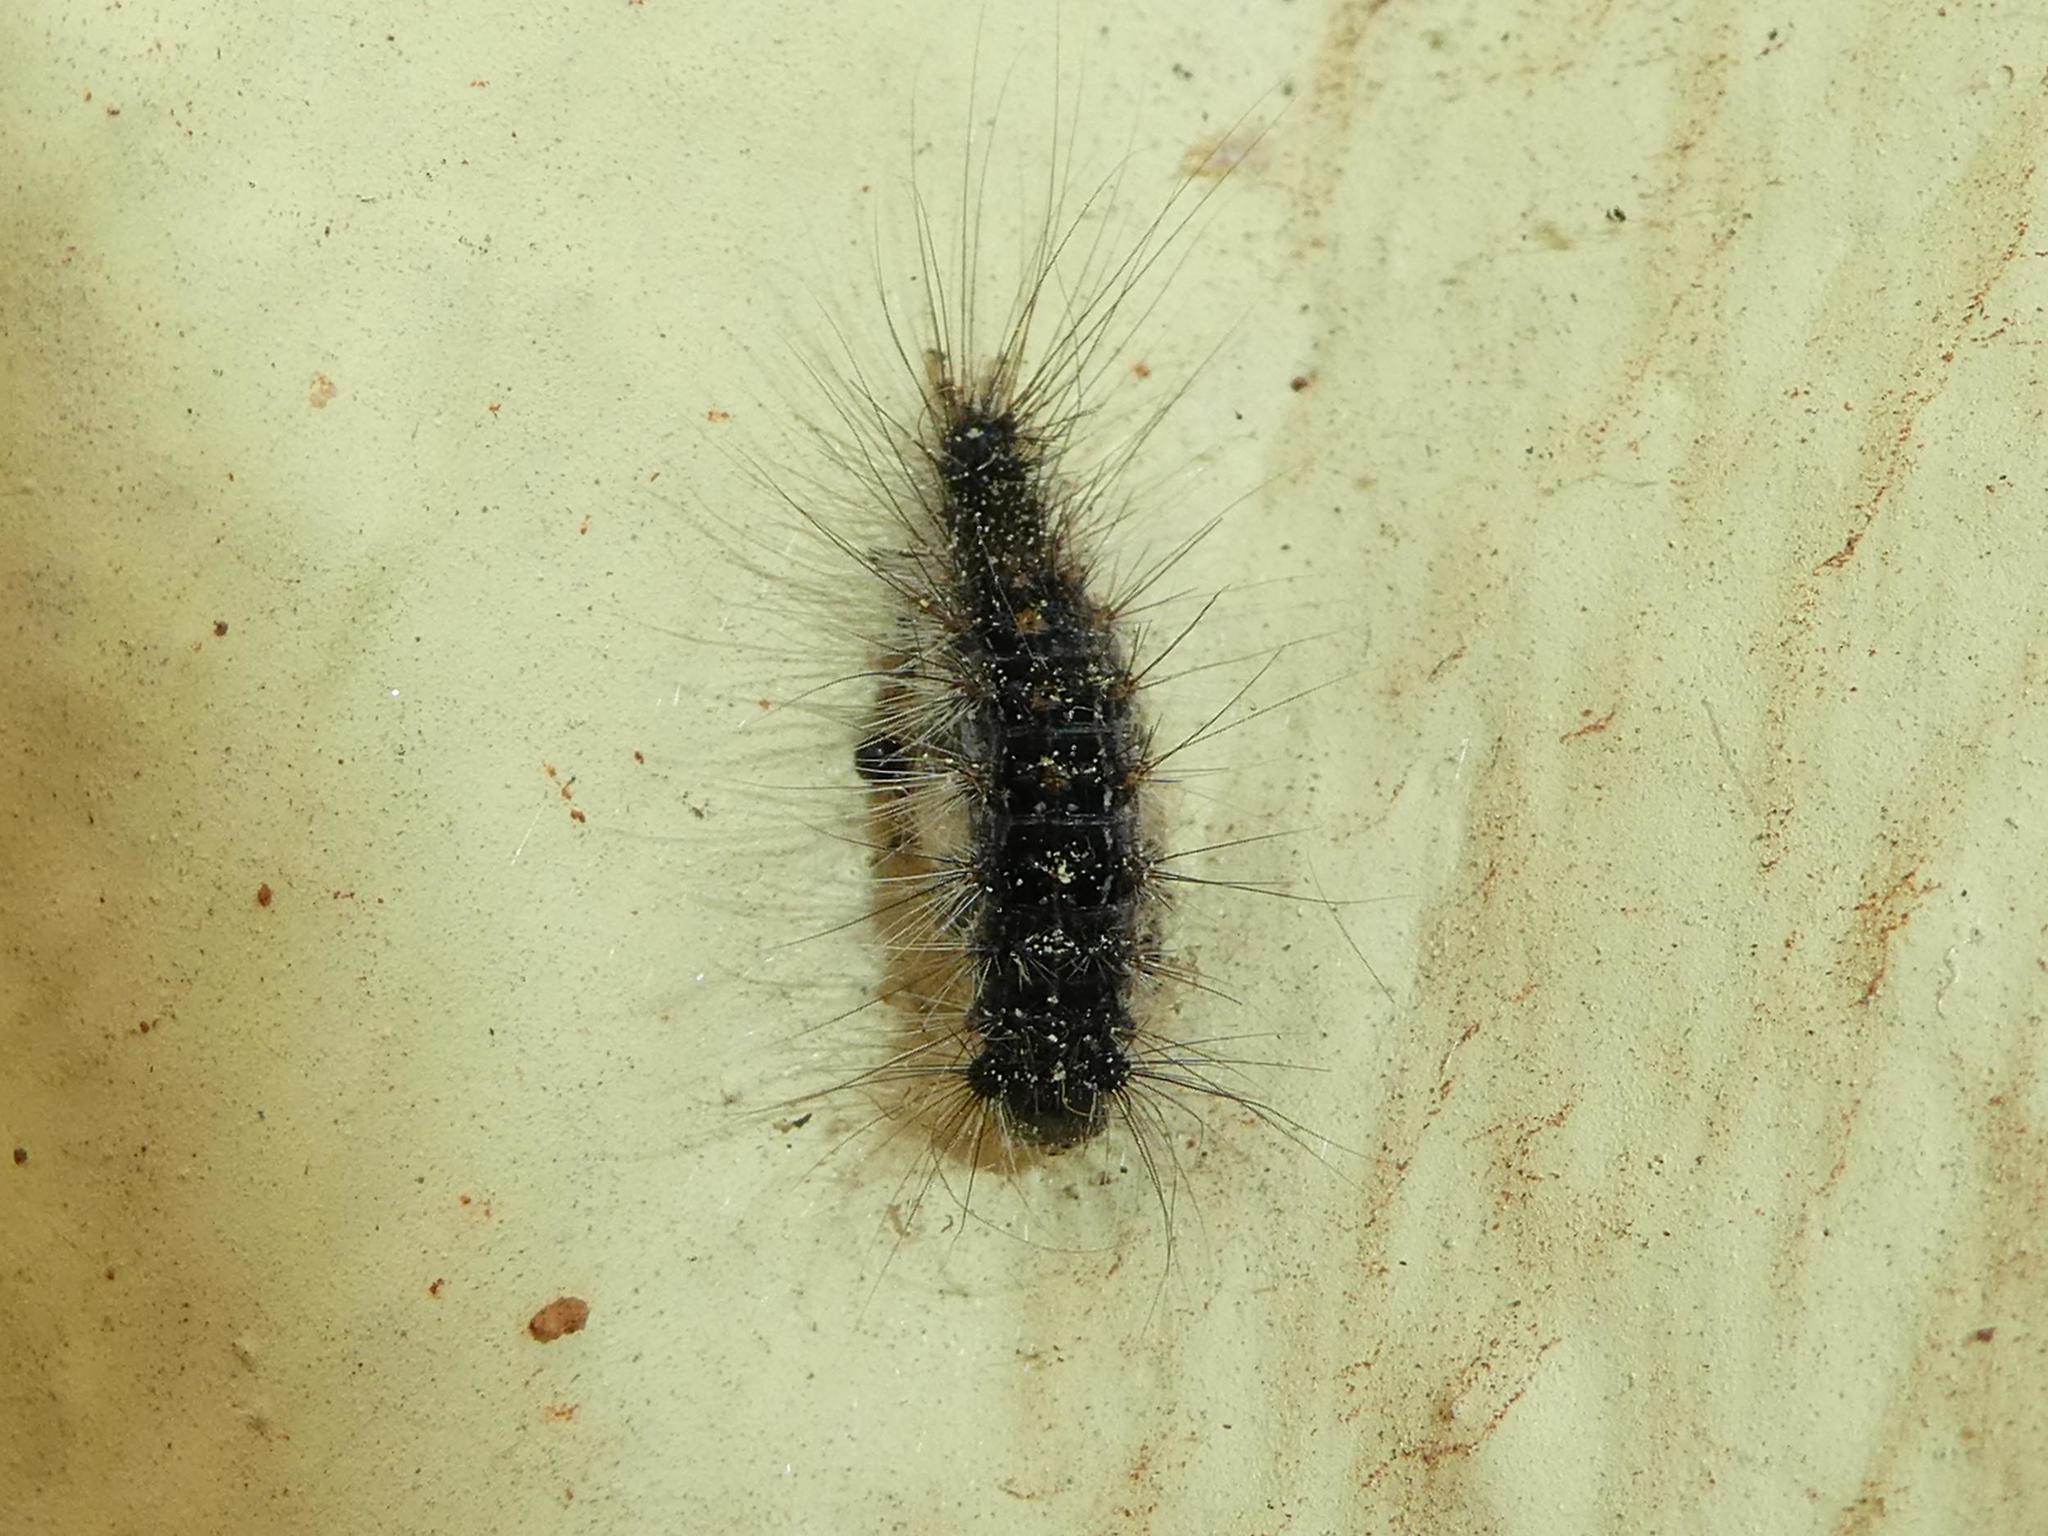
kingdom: Animalia
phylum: Arthropoda
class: Insecta
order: Lepidoptera
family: Erebidae
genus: Lymantria
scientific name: Lymantria dispar
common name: Gypsy moth
